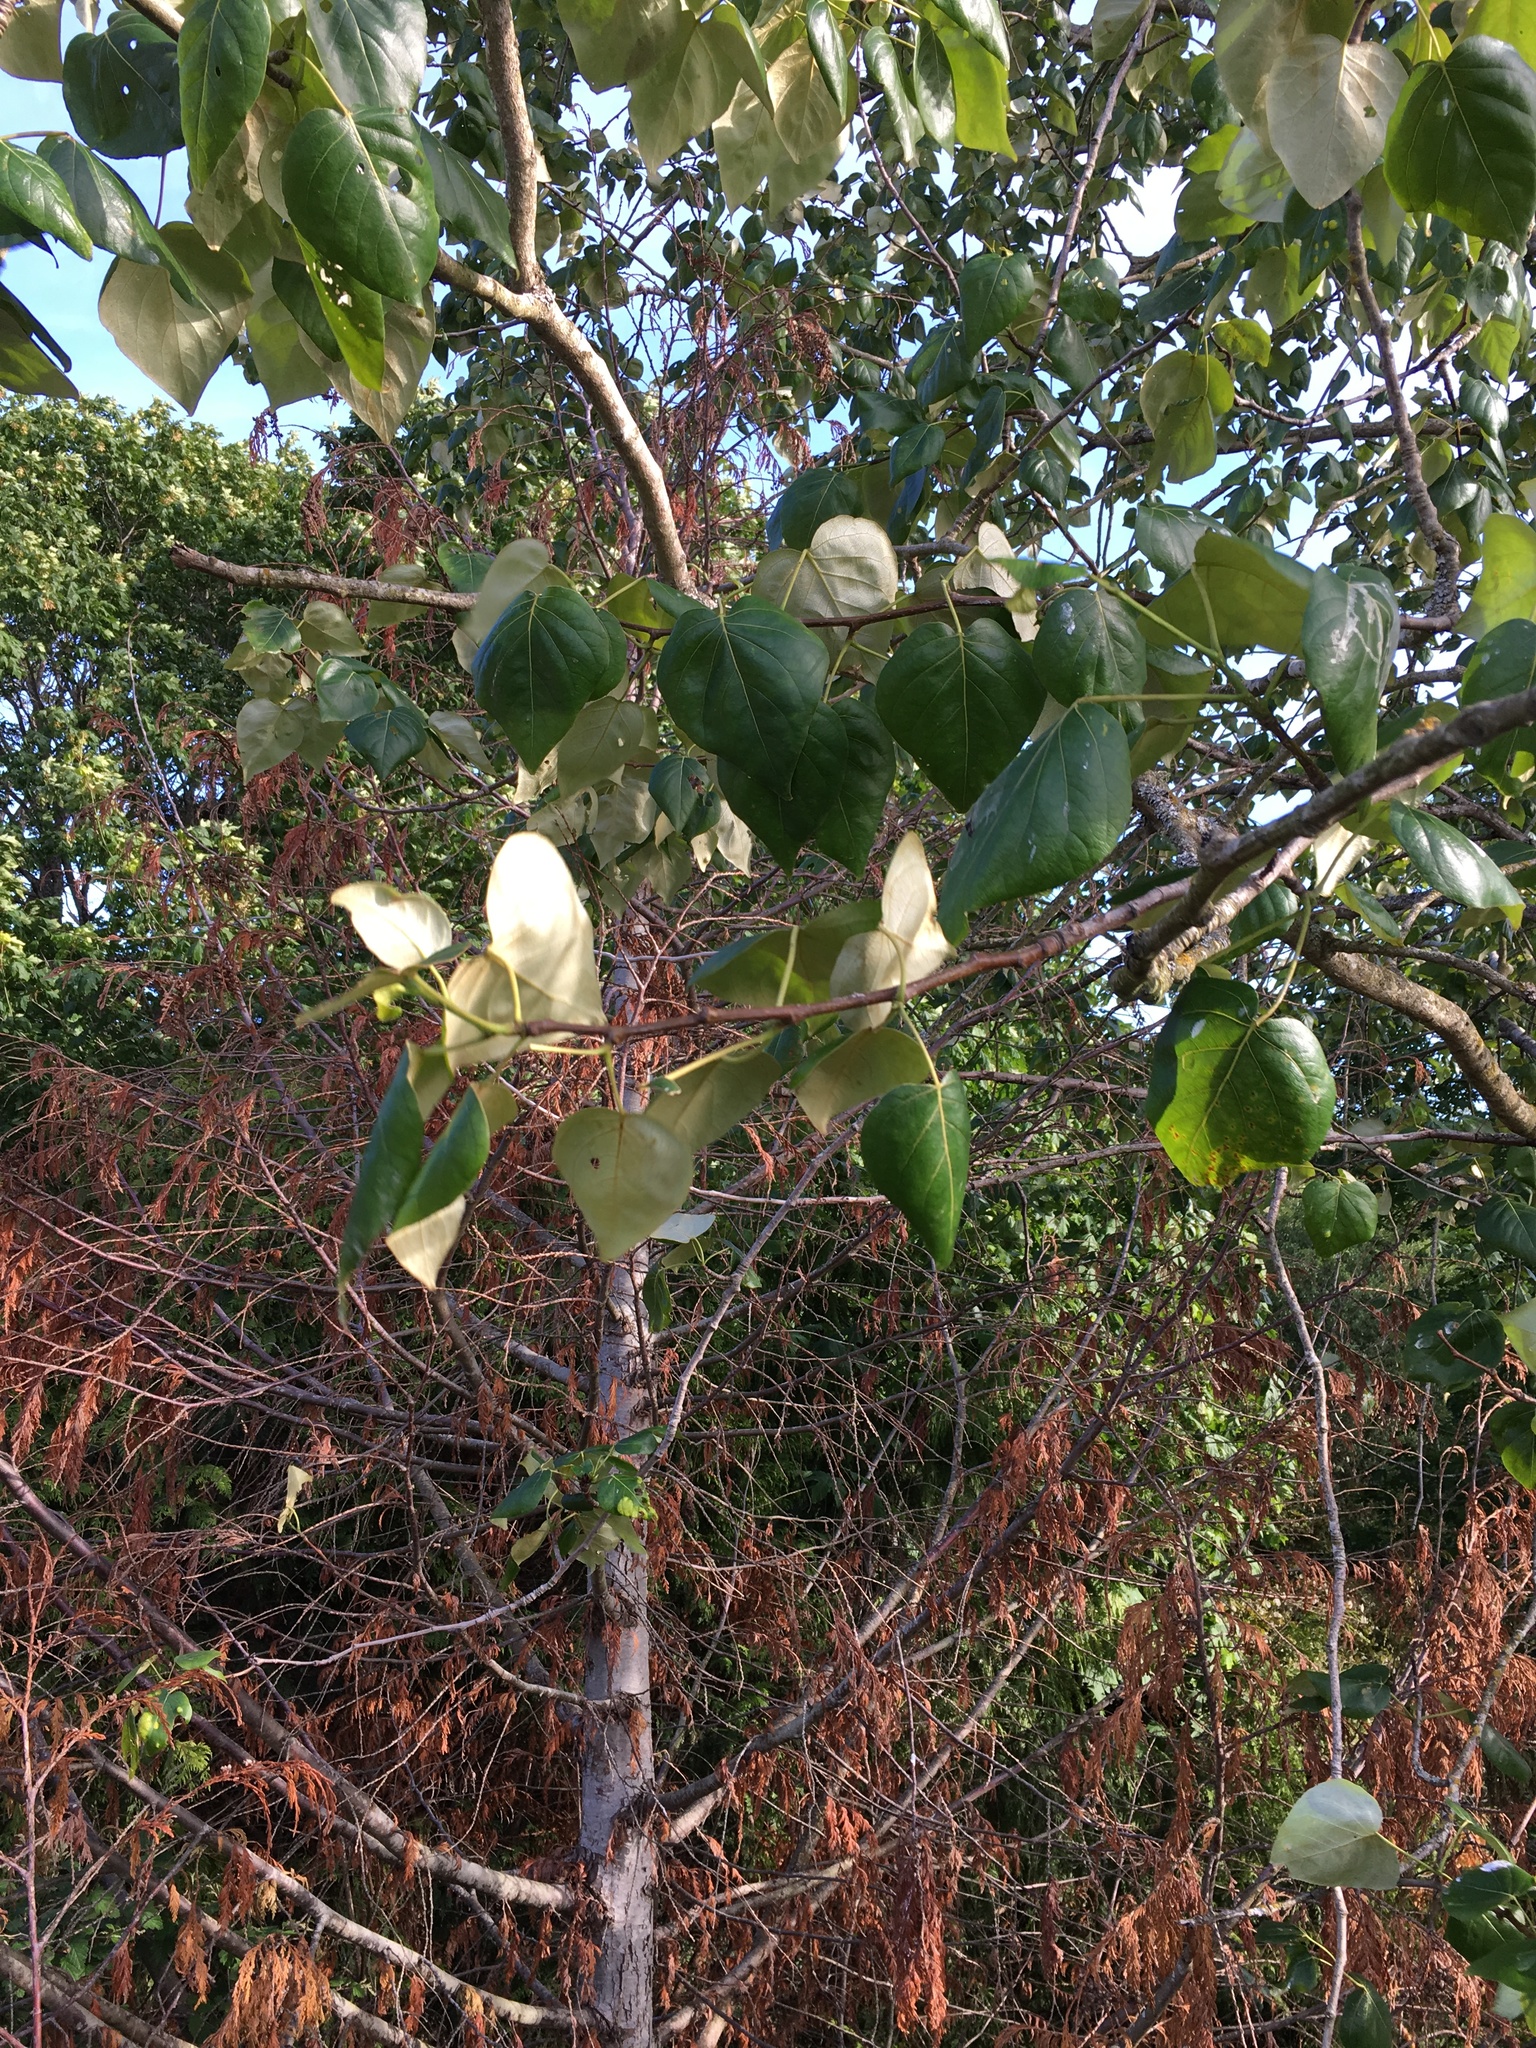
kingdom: Plantae
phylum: Tracheophyta
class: Magnoliopsida
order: Malpighiales
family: Salicaceae
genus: Populus
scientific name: Populus trichocarpa
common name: Black cottonwood
